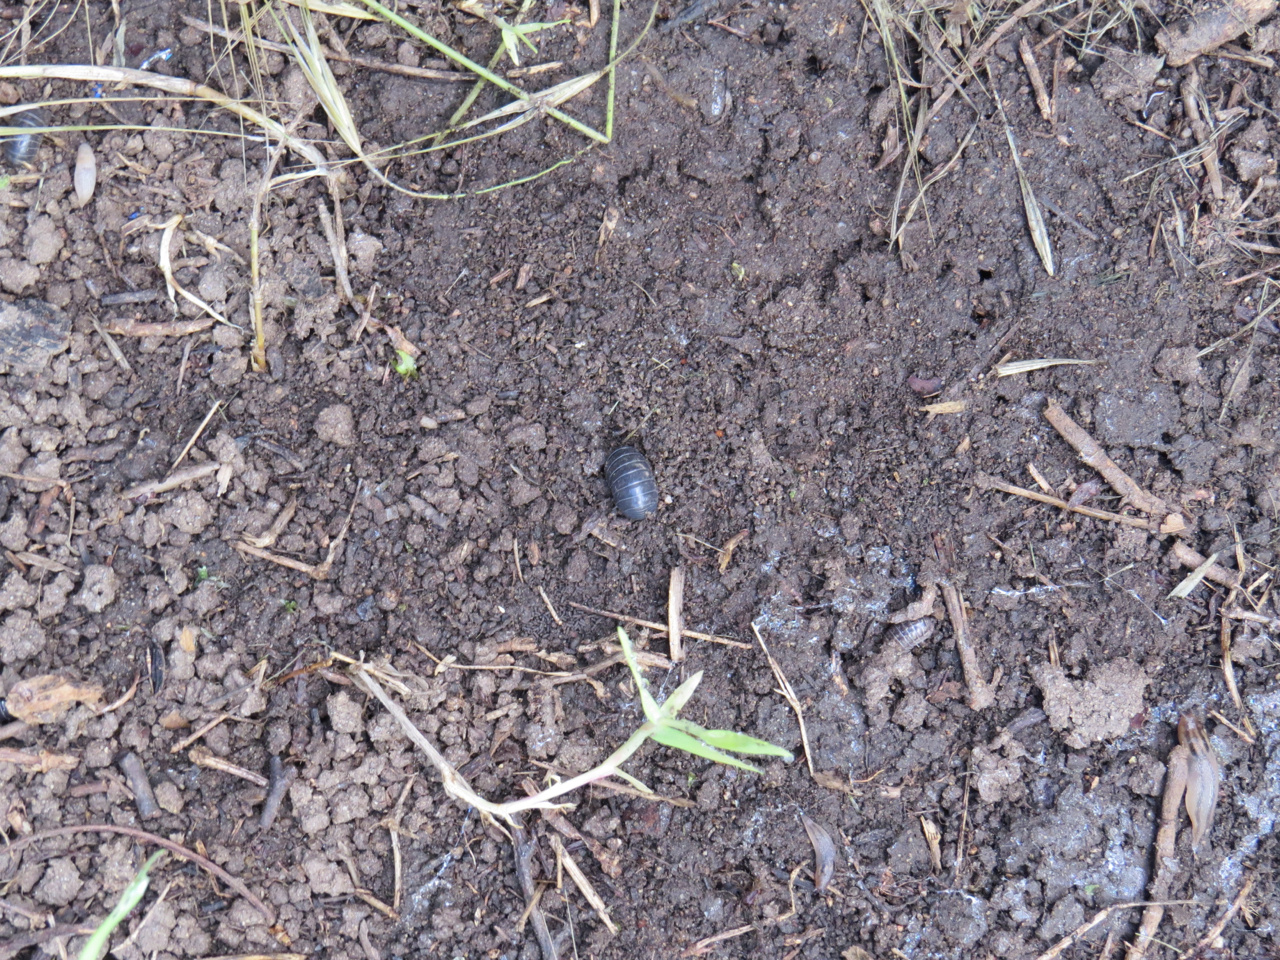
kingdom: Animalia
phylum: Arthropoda
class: Malacostraca
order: Isopoda
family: Armadillidiidae
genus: Armadillidium
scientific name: Armadillidium vulgare
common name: Common pill woodlouse
